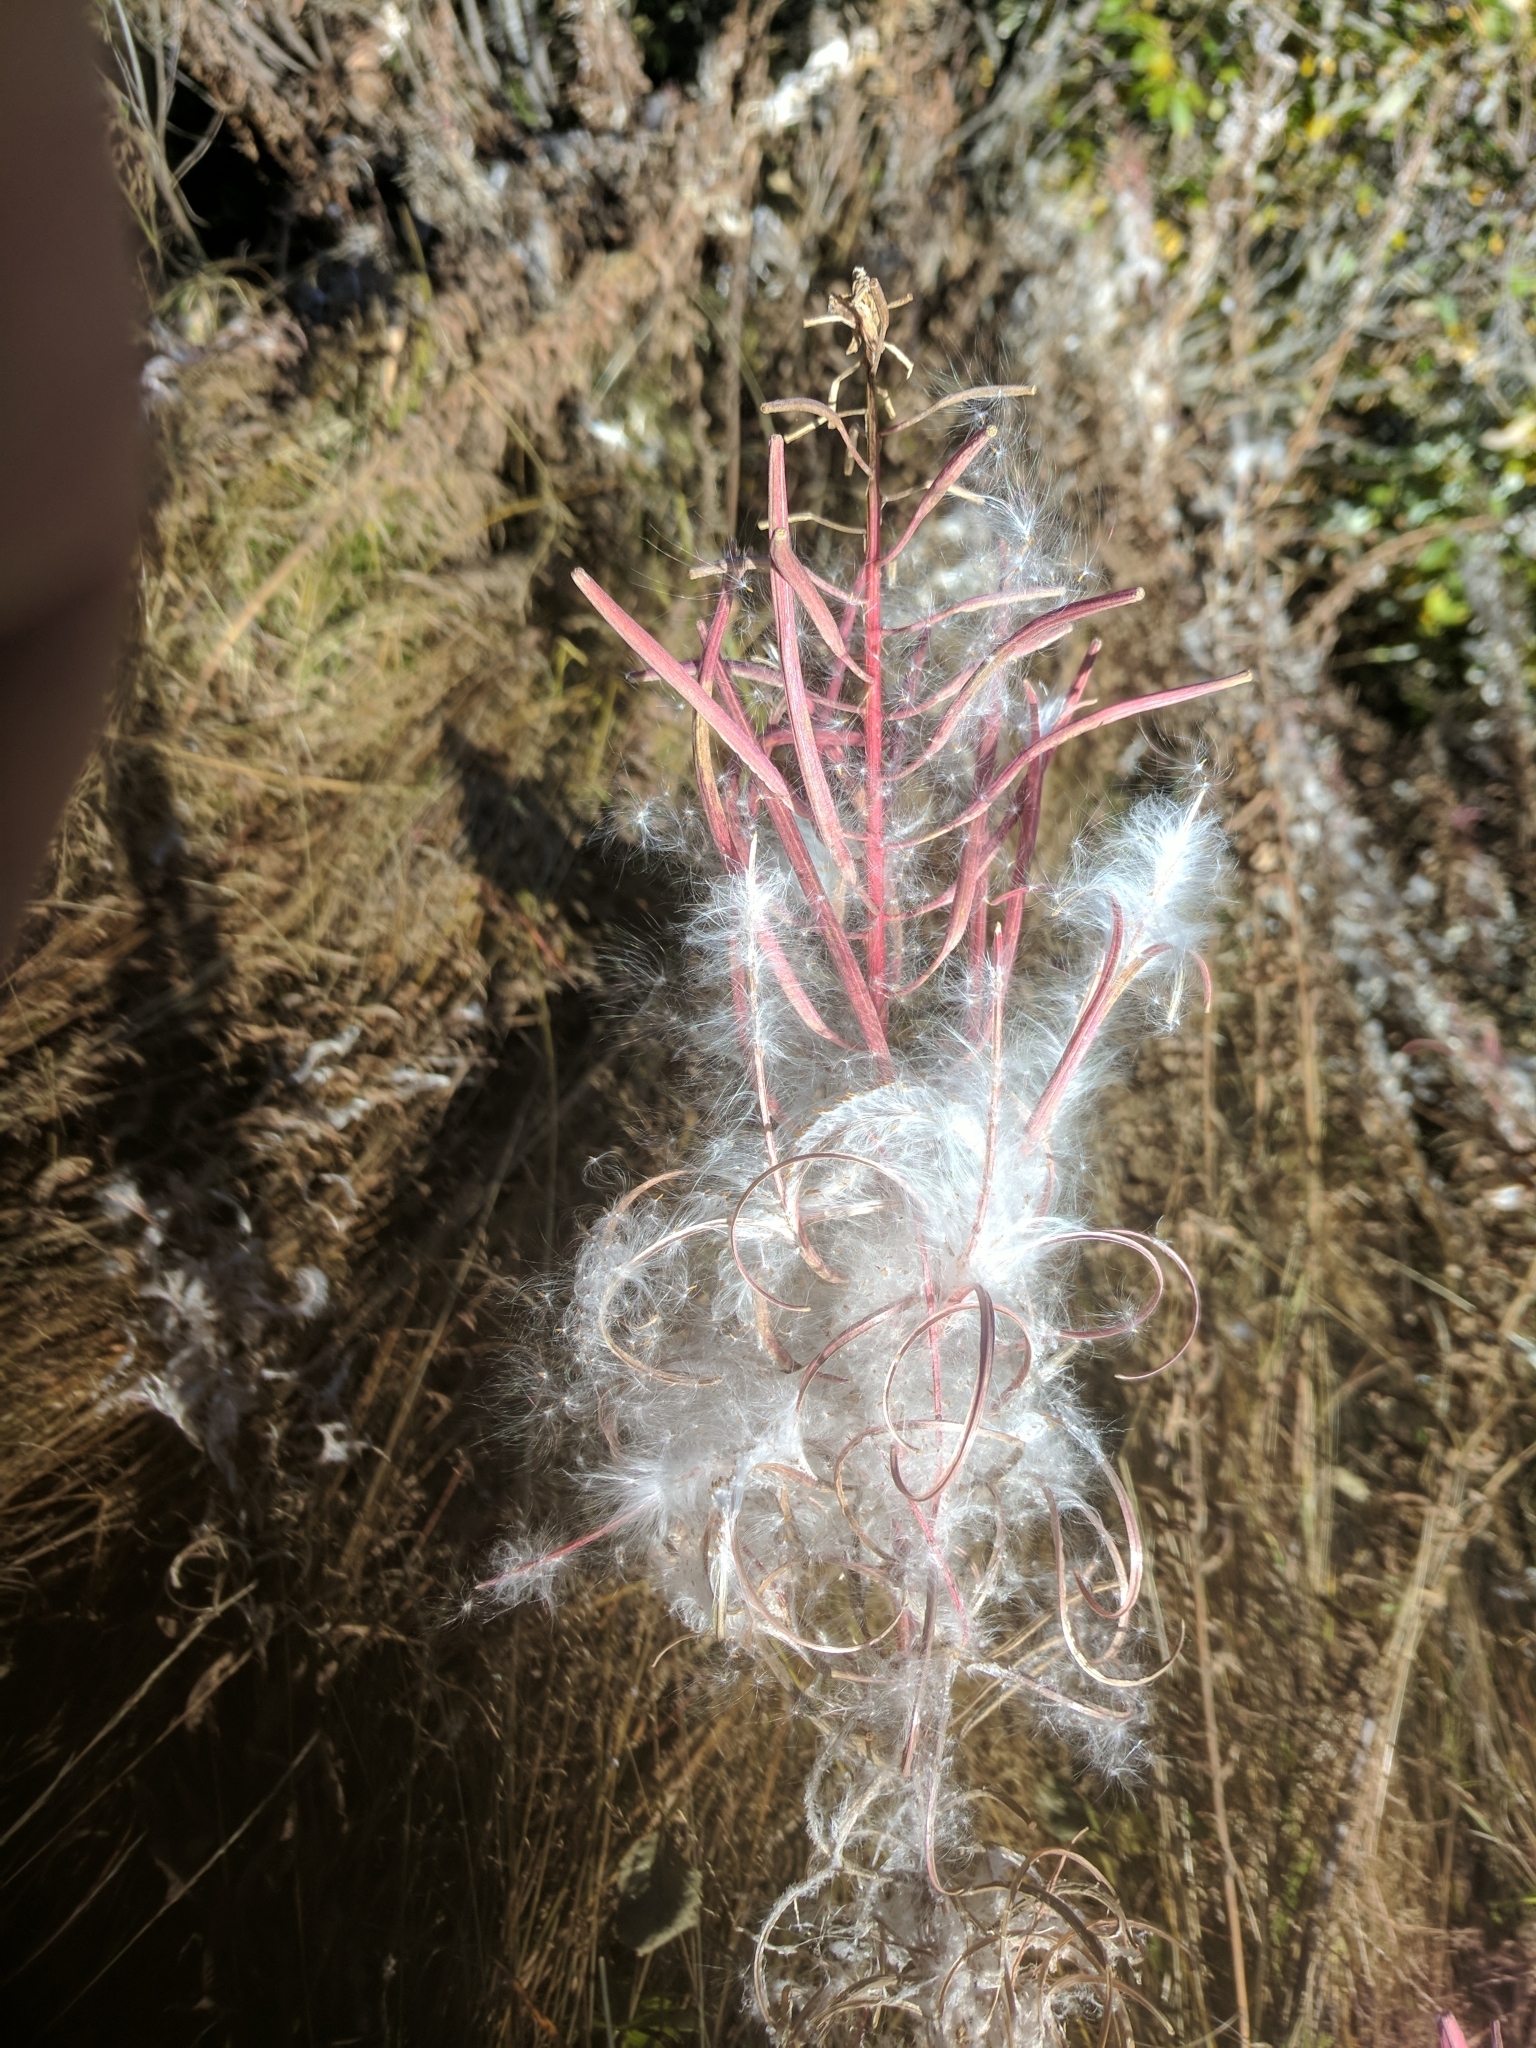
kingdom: Plantae
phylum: Tracheophyta
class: Magnoliopsida
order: Myrtales
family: Onagraceae
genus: Chamaenerion
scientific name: Chamaenerion angustifolium
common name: Fireweed
